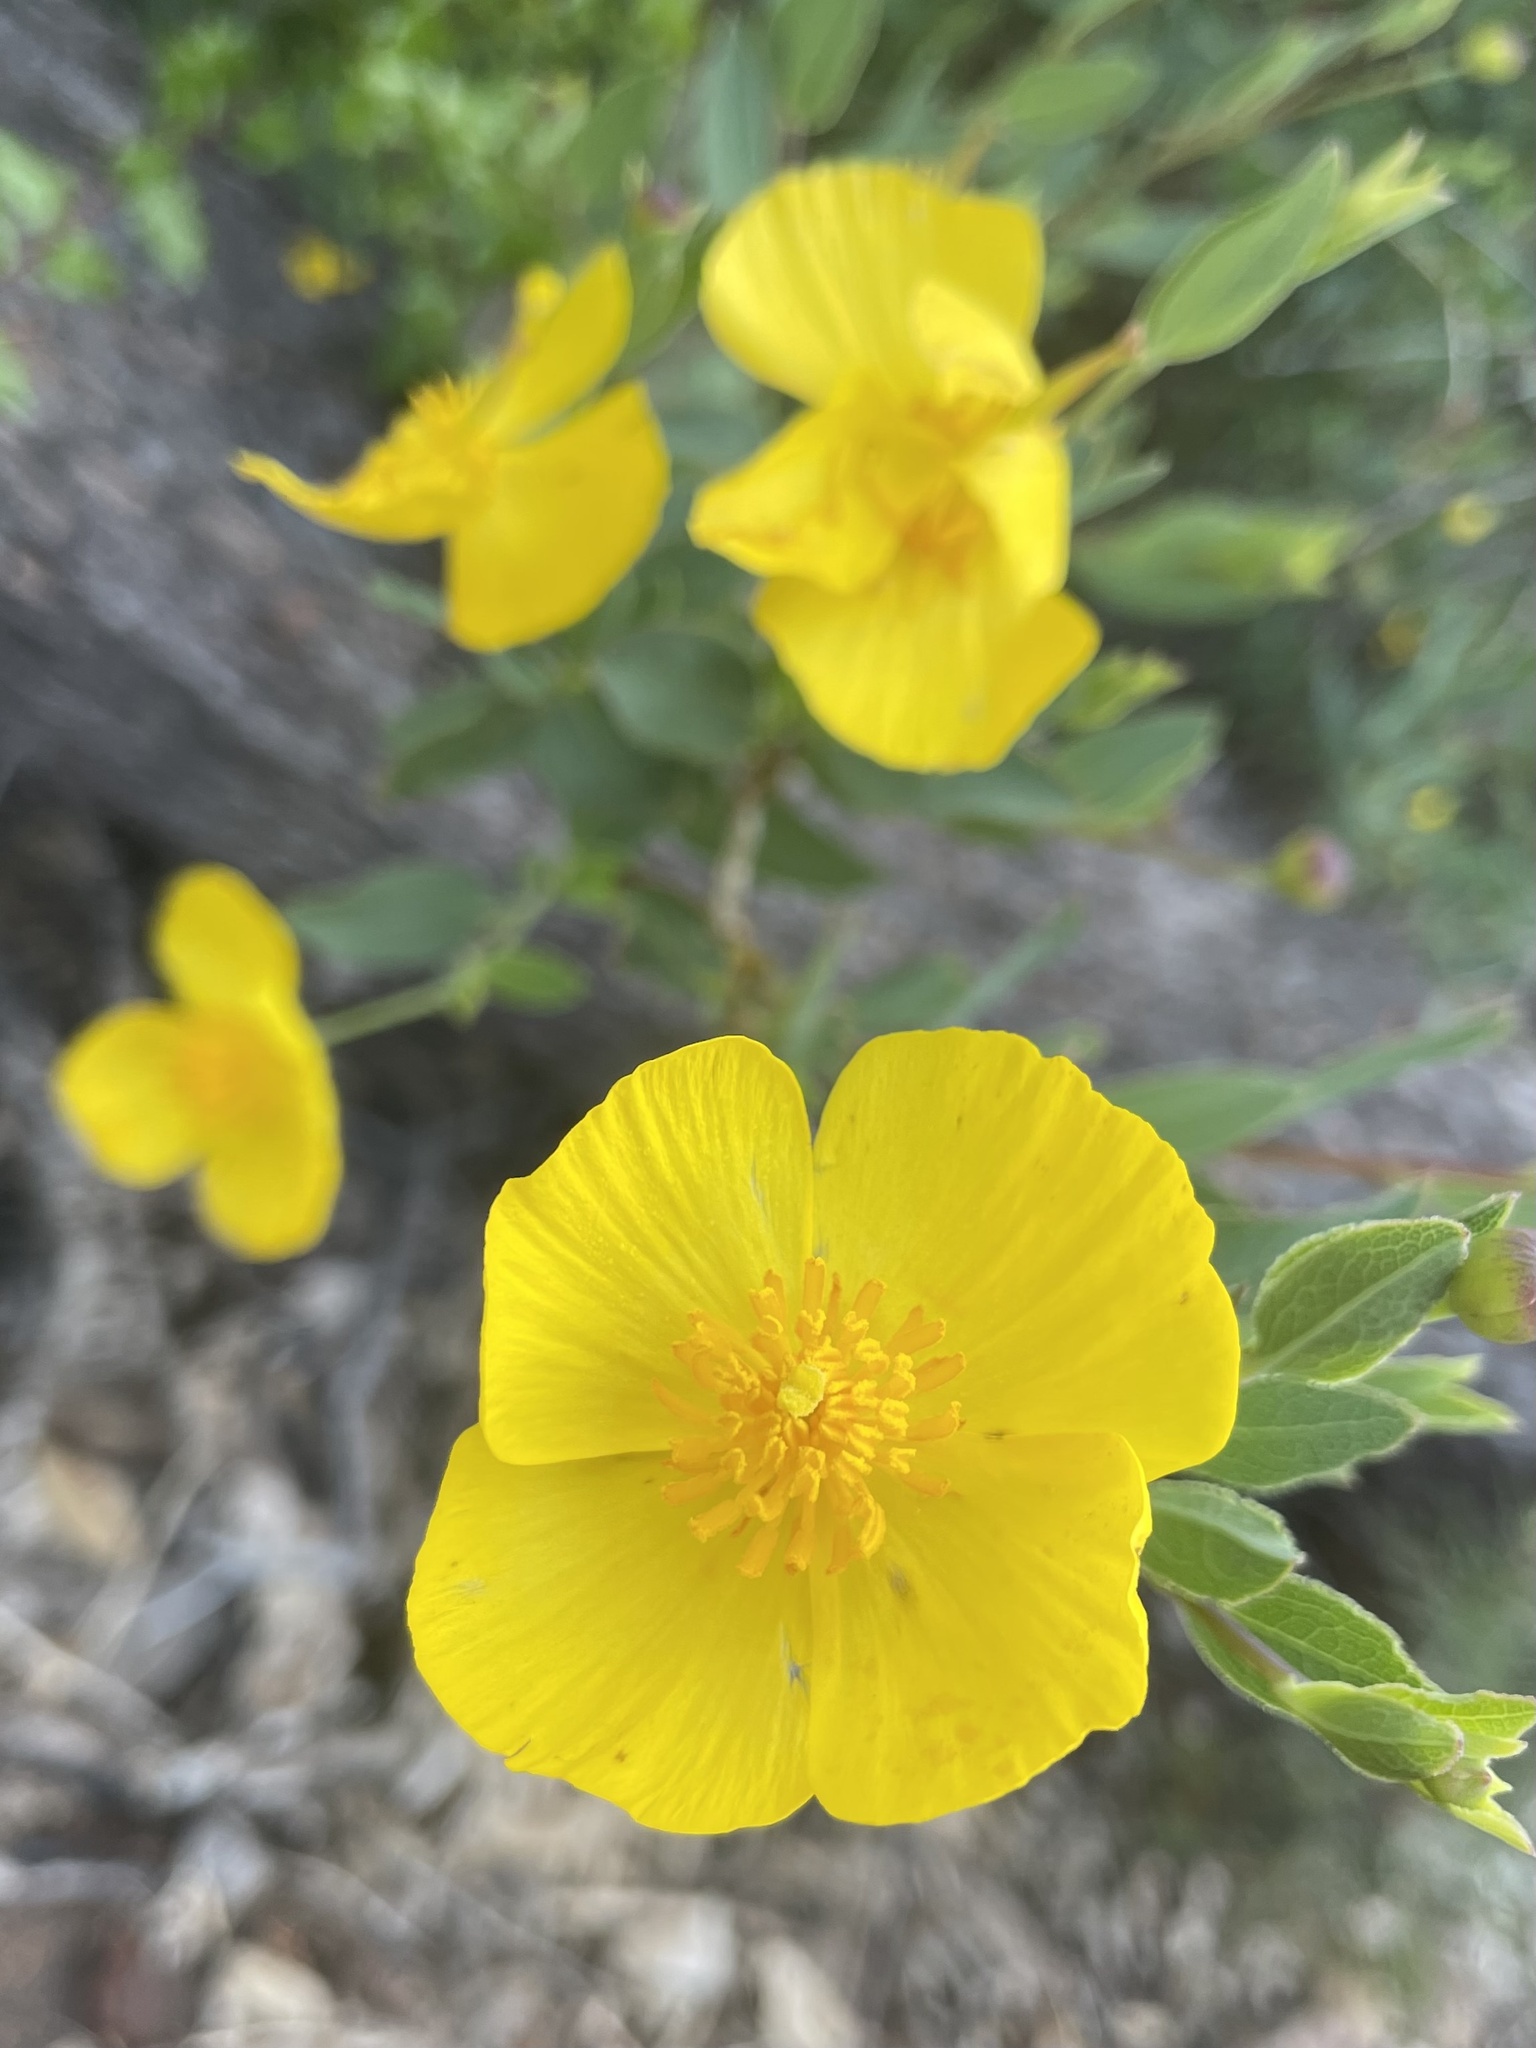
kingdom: Plantae
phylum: Tracheophyta
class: Magnoliopsida
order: Ranunculales
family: Papaveraceae
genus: Dendromecon
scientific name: Dendromecon rigida
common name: Tree poppy
